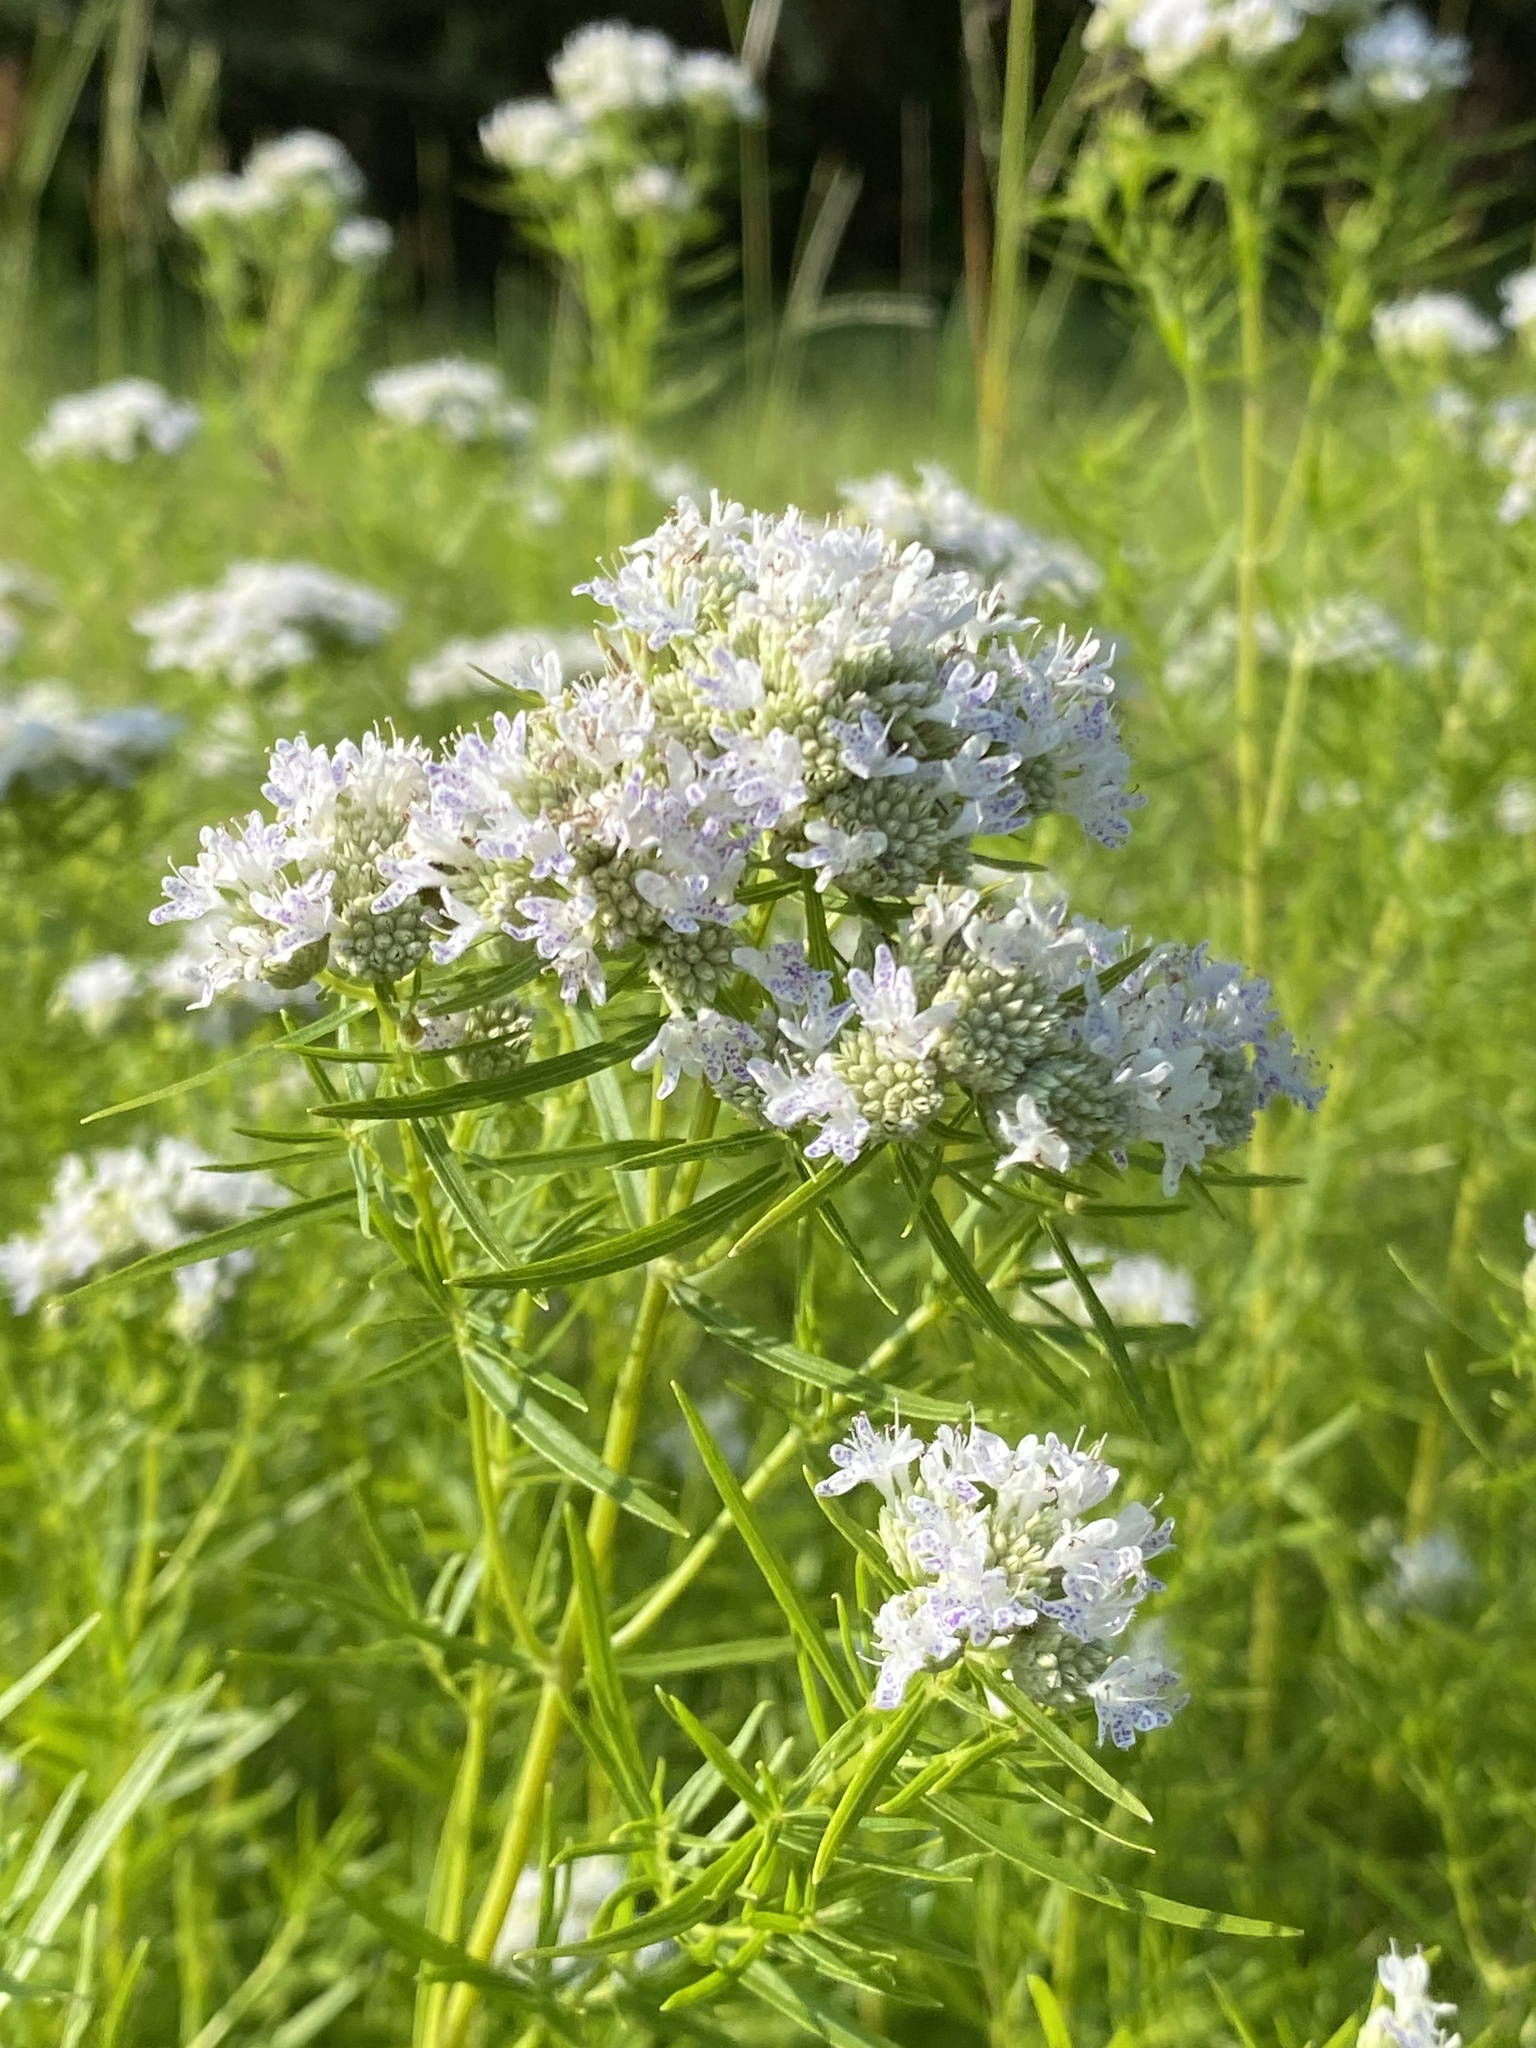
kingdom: Plantae
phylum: Tracheophyta
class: Magnoliopsida
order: Lamiales
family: Lamiaceae
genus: Pycnanthemum
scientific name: Pycnanthemum tenuifolium
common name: Narrow-leaf mountain-mint
